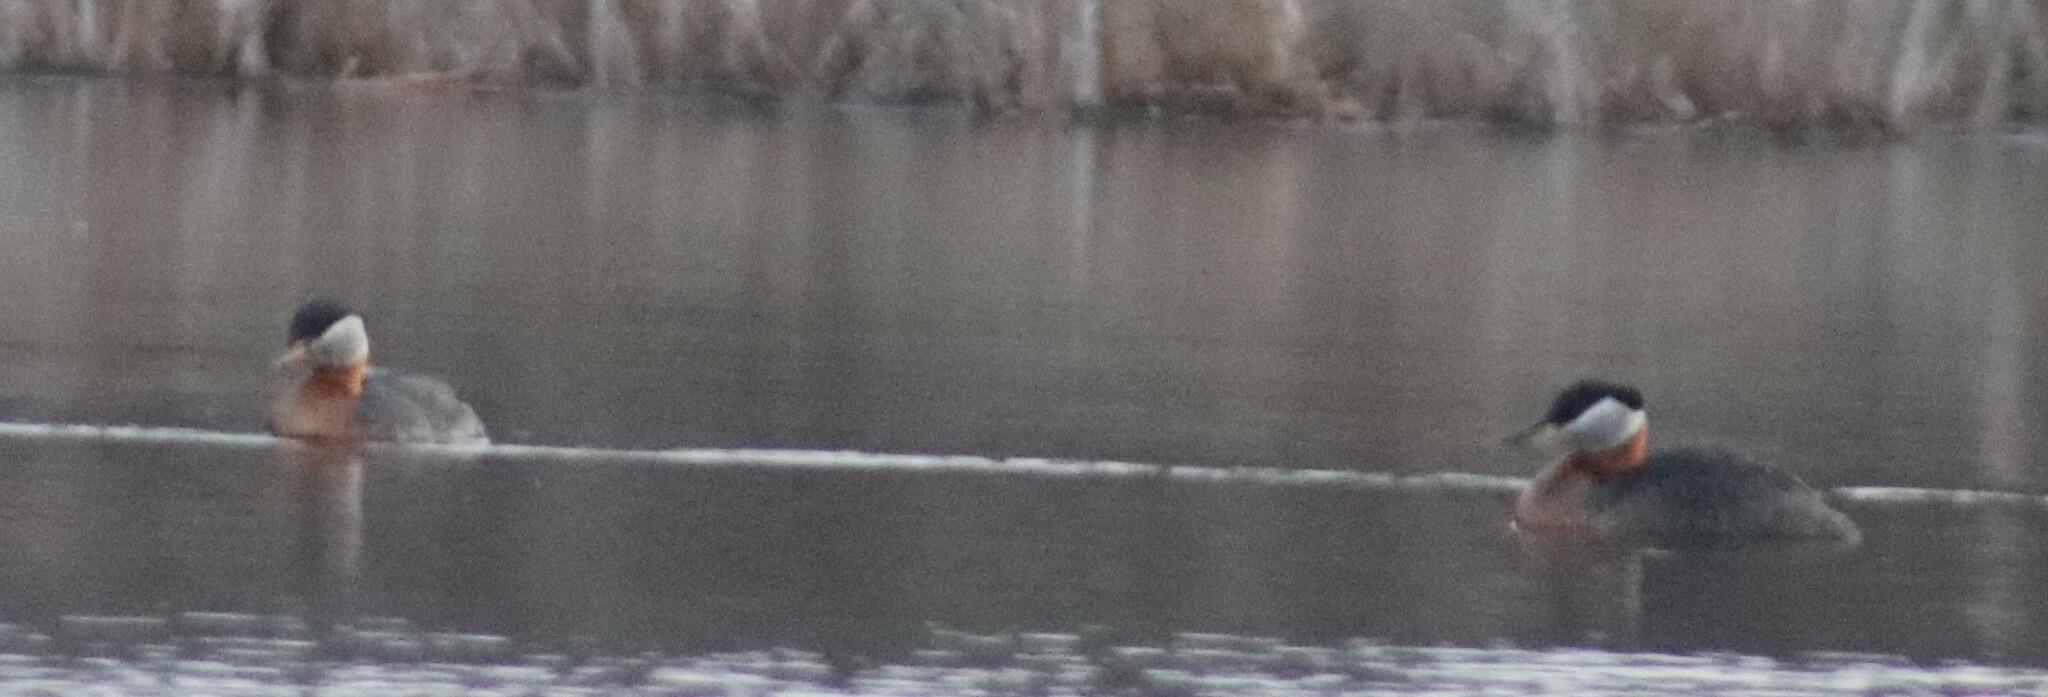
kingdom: Animalia
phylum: Chordata
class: Aves
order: Podicipediformes
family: Podicipedidae
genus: Podiceps
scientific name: Podiceps grisegena
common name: Red-necked grebe
